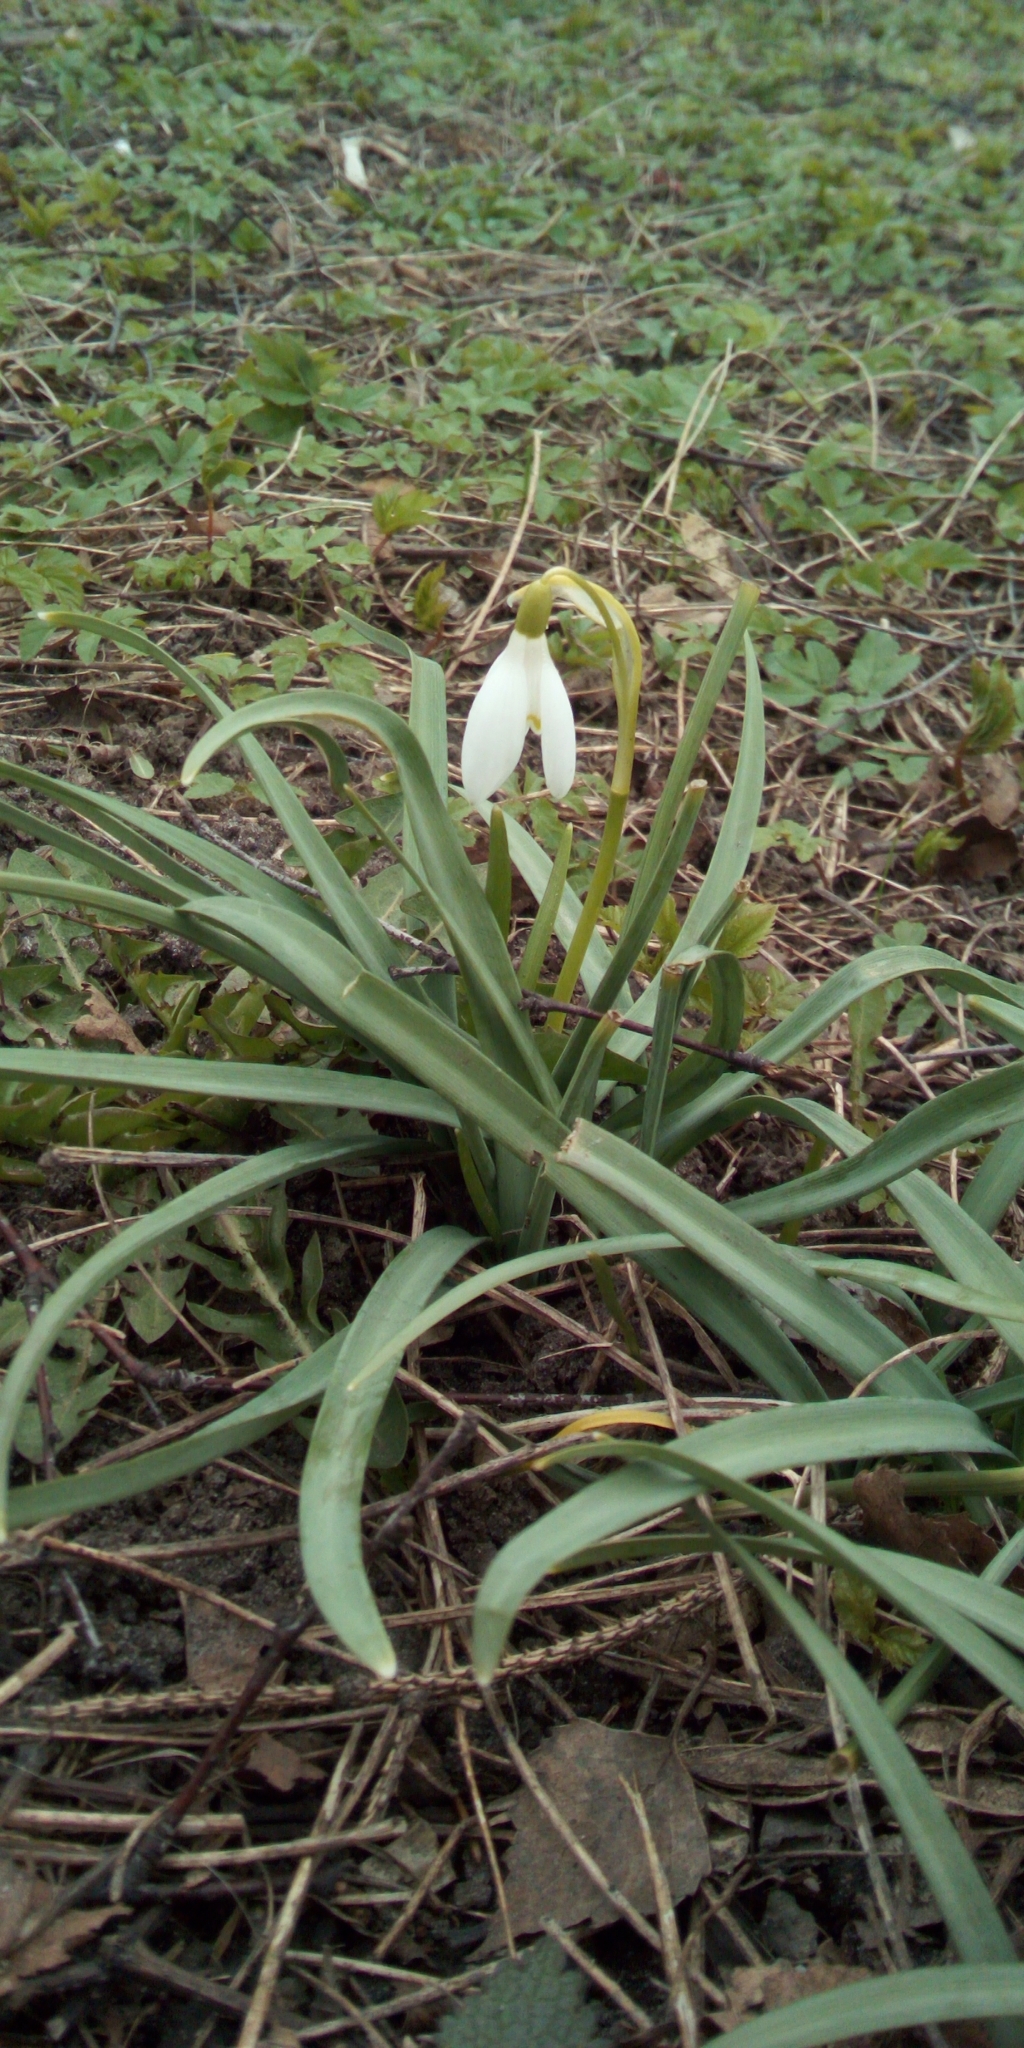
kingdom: Plantae
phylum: Tracheophyta
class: Liliopsida
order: Asparagales
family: Amaryllidaceae
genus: Galanthus
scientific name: Galanthus nivalis
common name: Snowdrop
